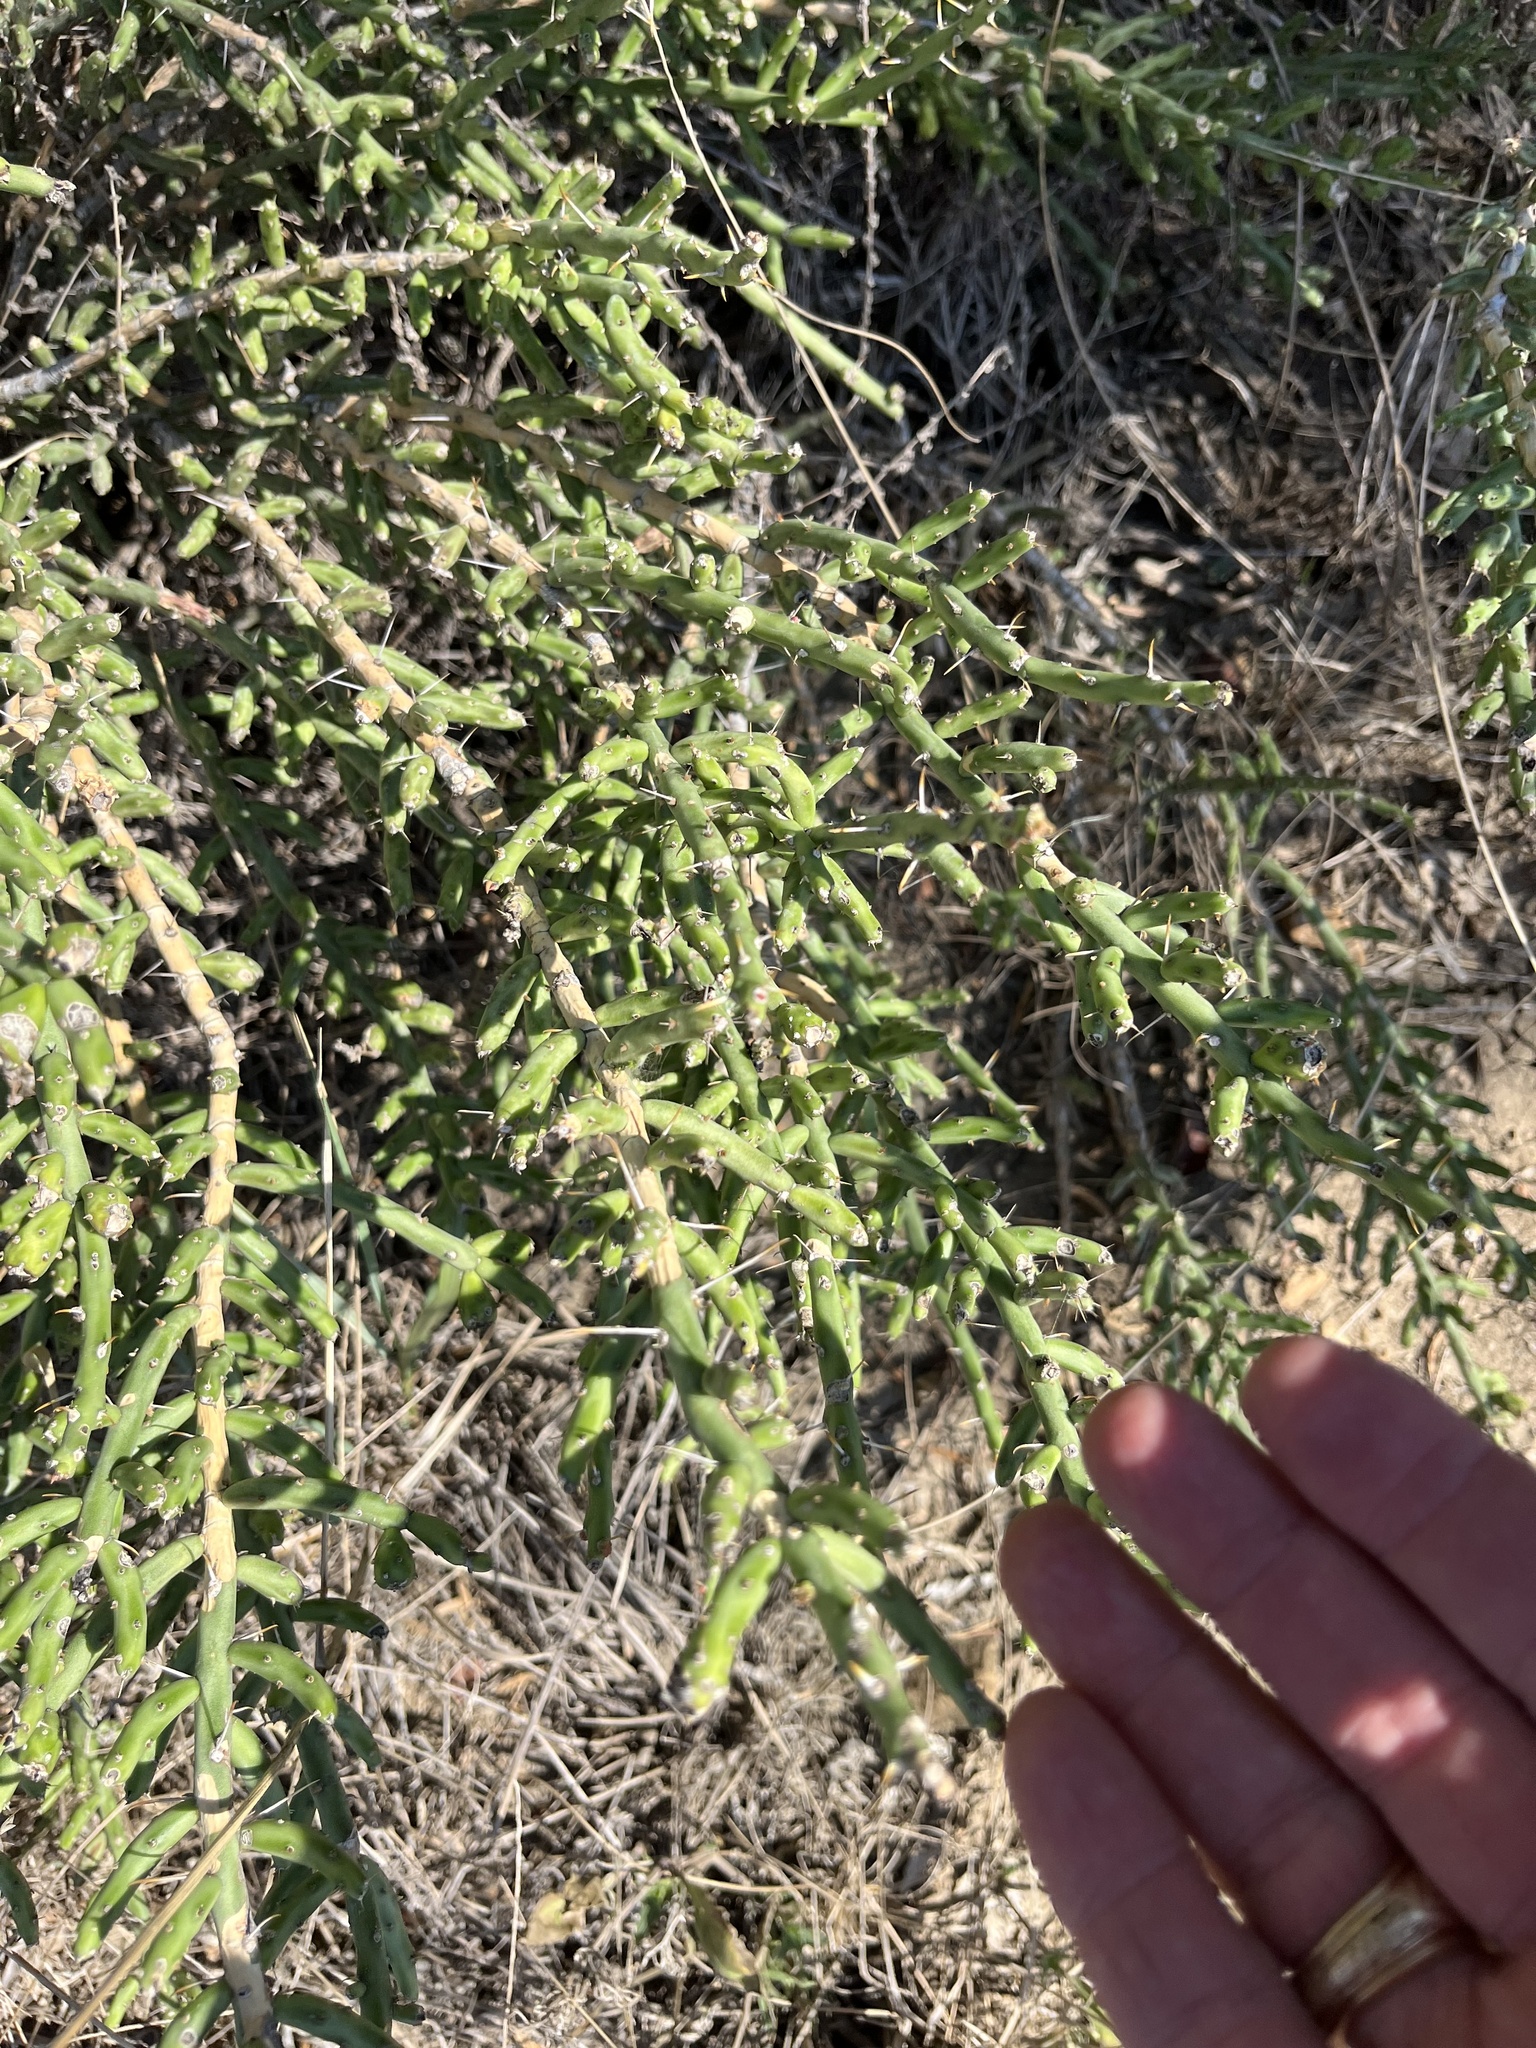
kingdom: Plantae
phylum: Tracheophyta
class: Magnoliopsida
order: Caryophyllales
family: Cactaceae
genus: Cylindropuntia
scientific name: Cylindropuntia leptocaulis
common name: Christmas cactus
